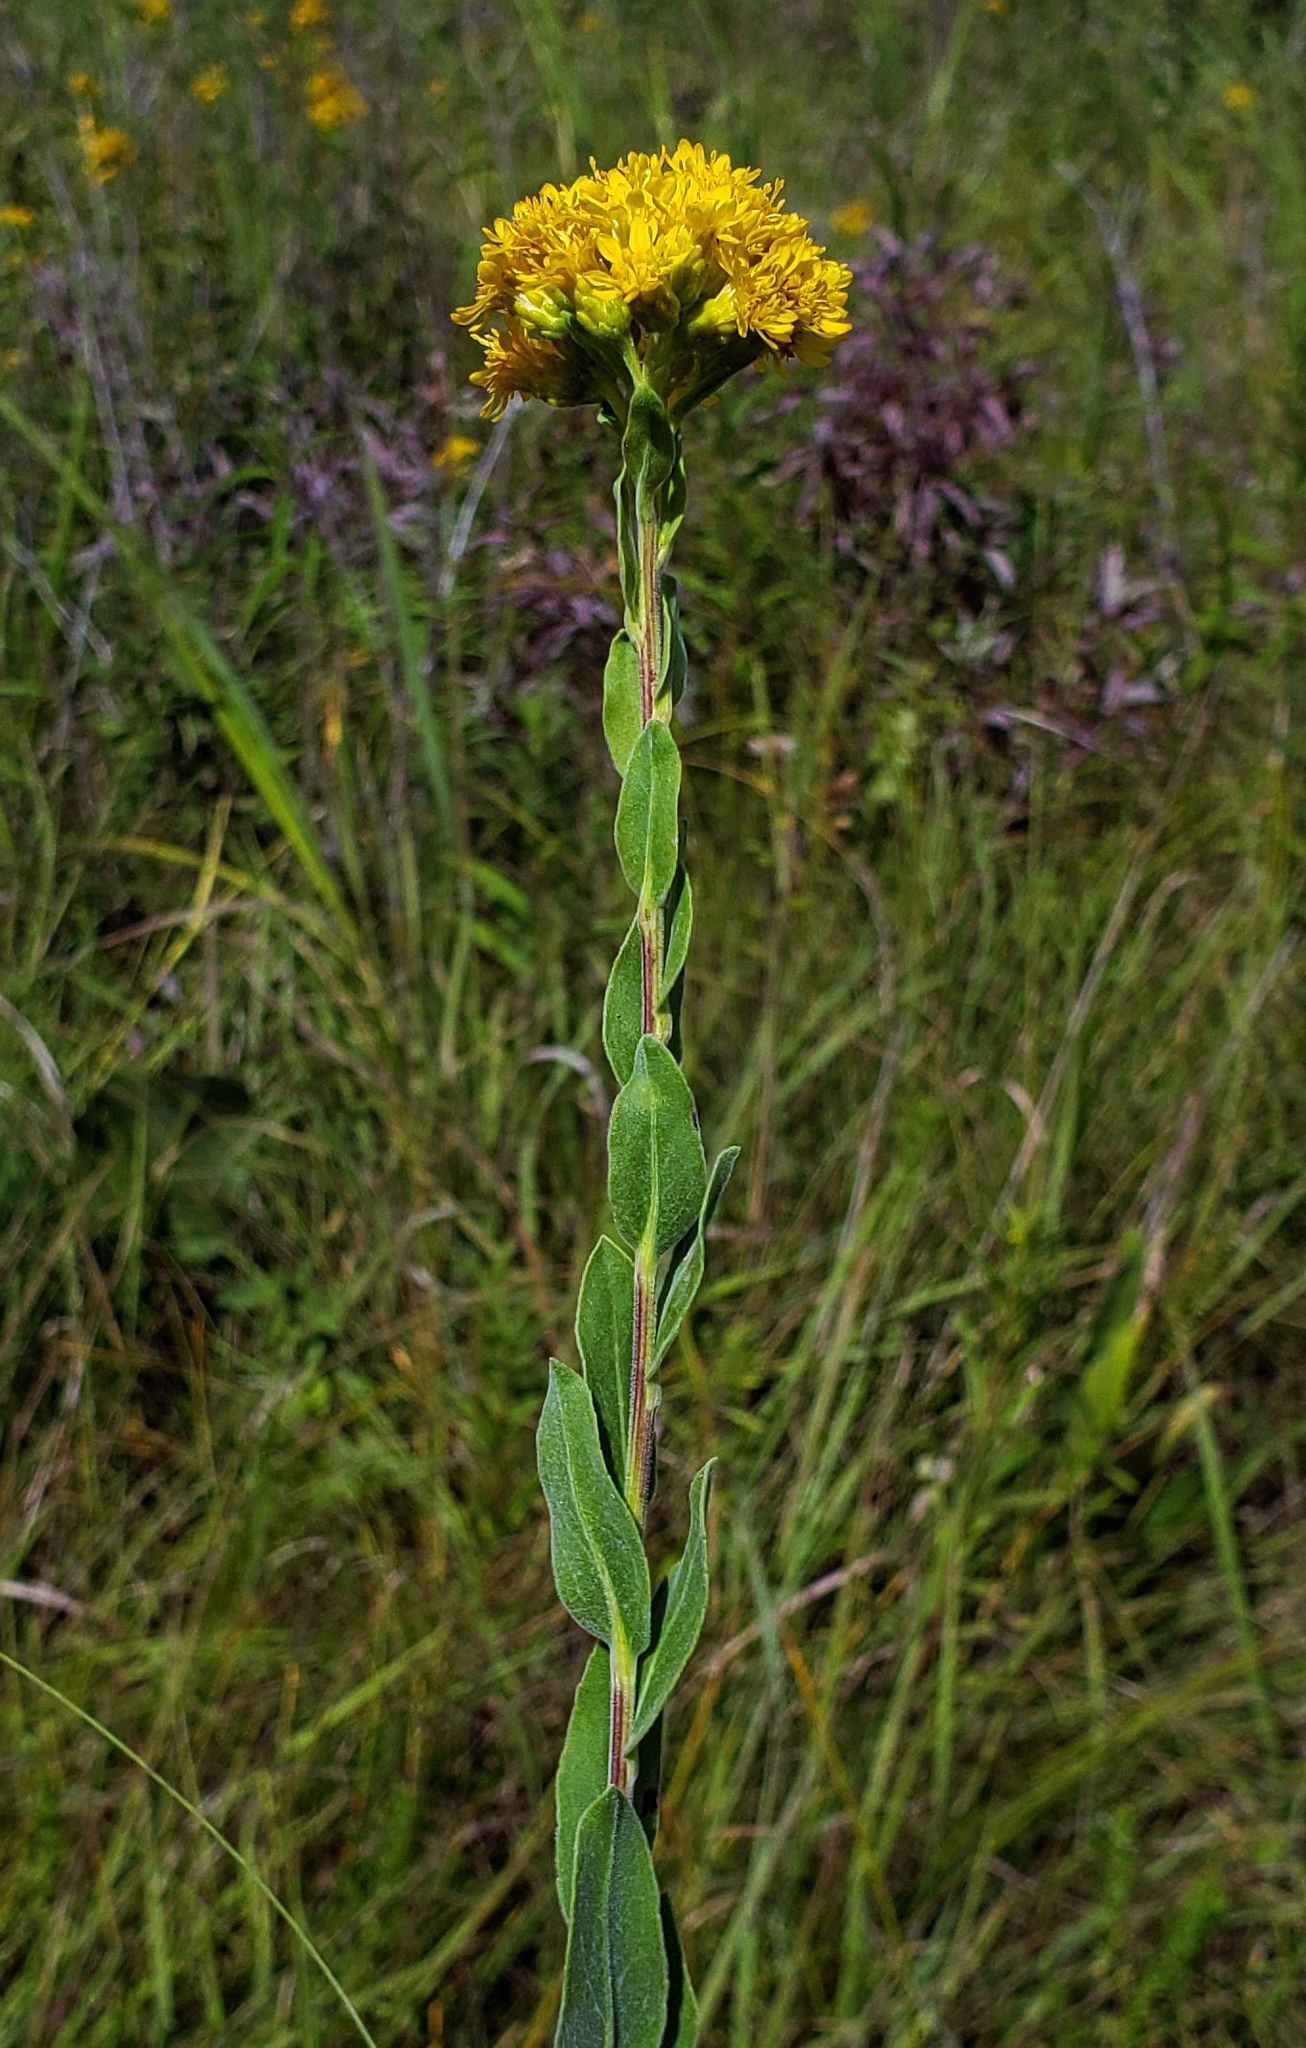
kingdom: Plantae
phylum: Tracheophyta
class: Magnoliopsida
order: Asterales
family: Asteraceae
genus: Solidago
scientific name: Solidago rigida
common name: Rigid goldenrod
